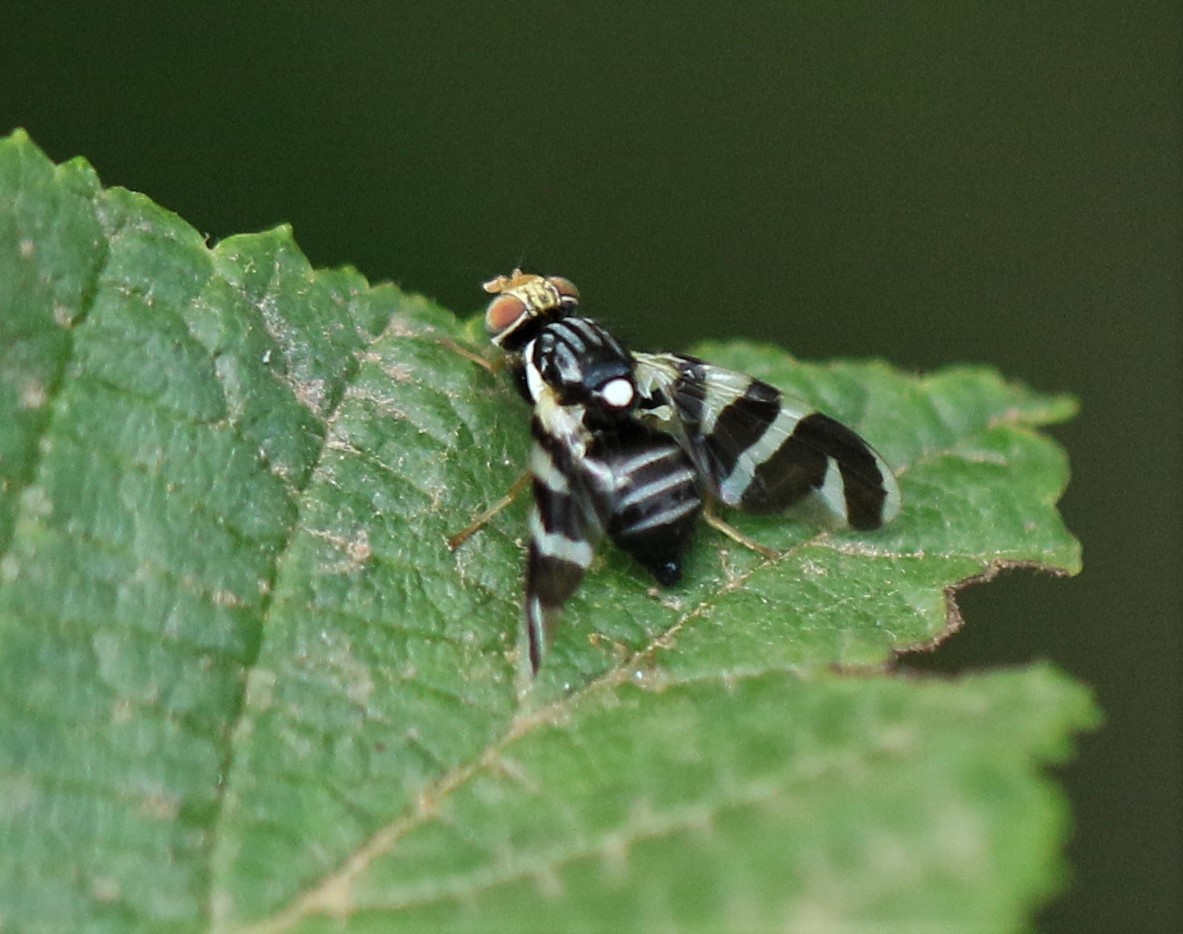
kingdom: Animalia
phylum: Arthropoda
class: Insecta
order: Diptera
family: Tephritidae
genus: Rhagoletis
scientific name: Rhagoletis tabellaria
